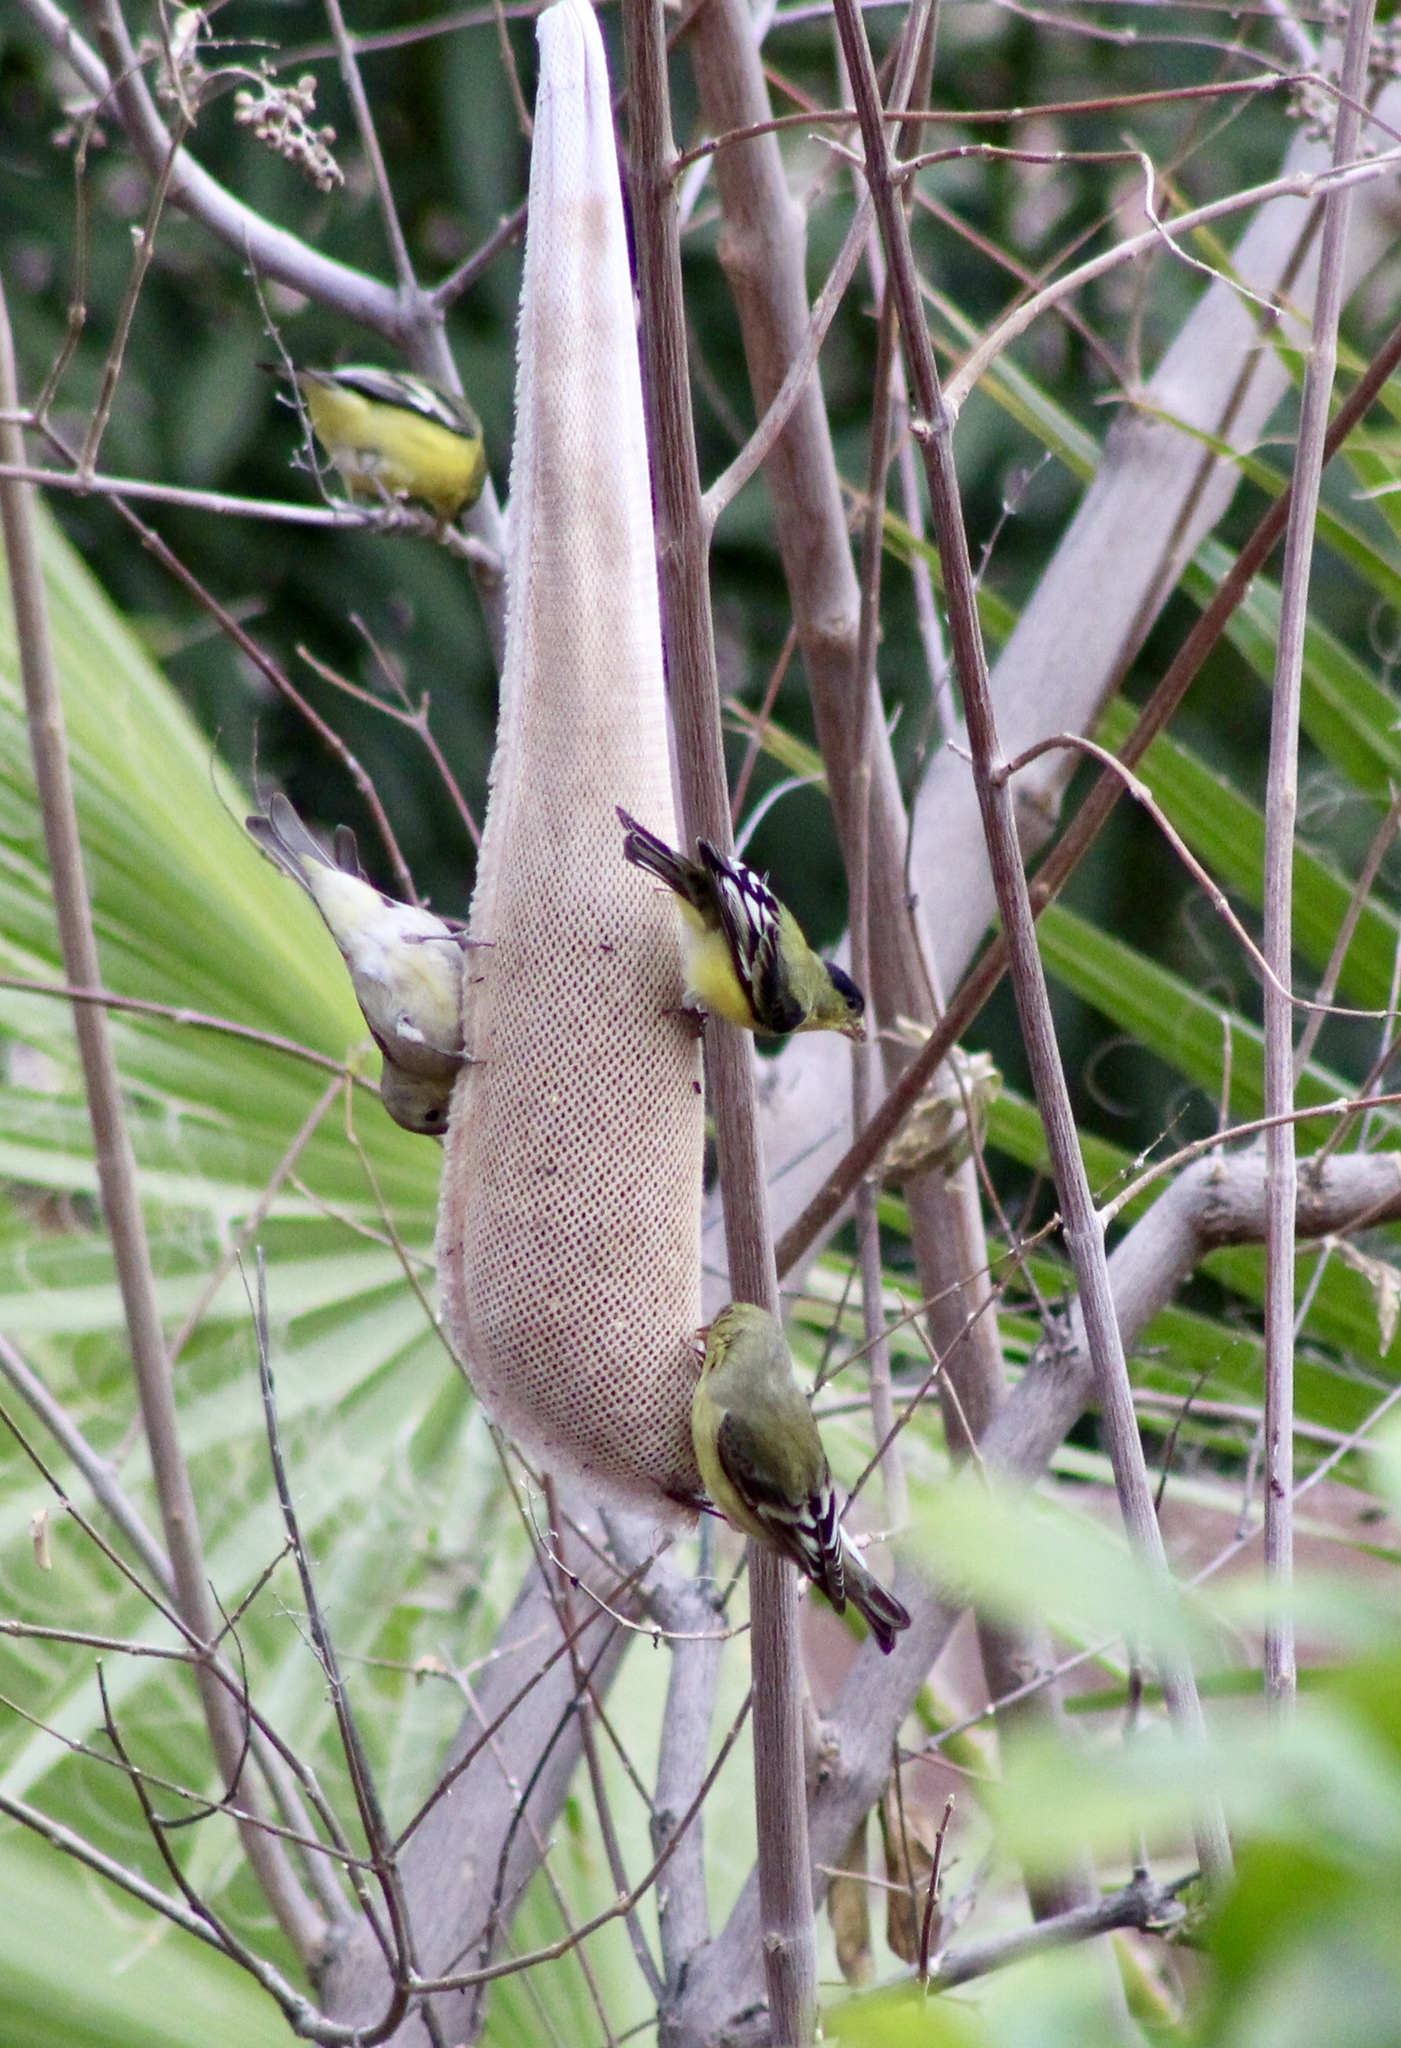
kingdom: Animalia
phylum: Chordata
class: Aves
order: Passeriformes
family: Fringillidae
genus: Spinus
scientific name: Spinus psaltria
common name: Lesser goldfinch
